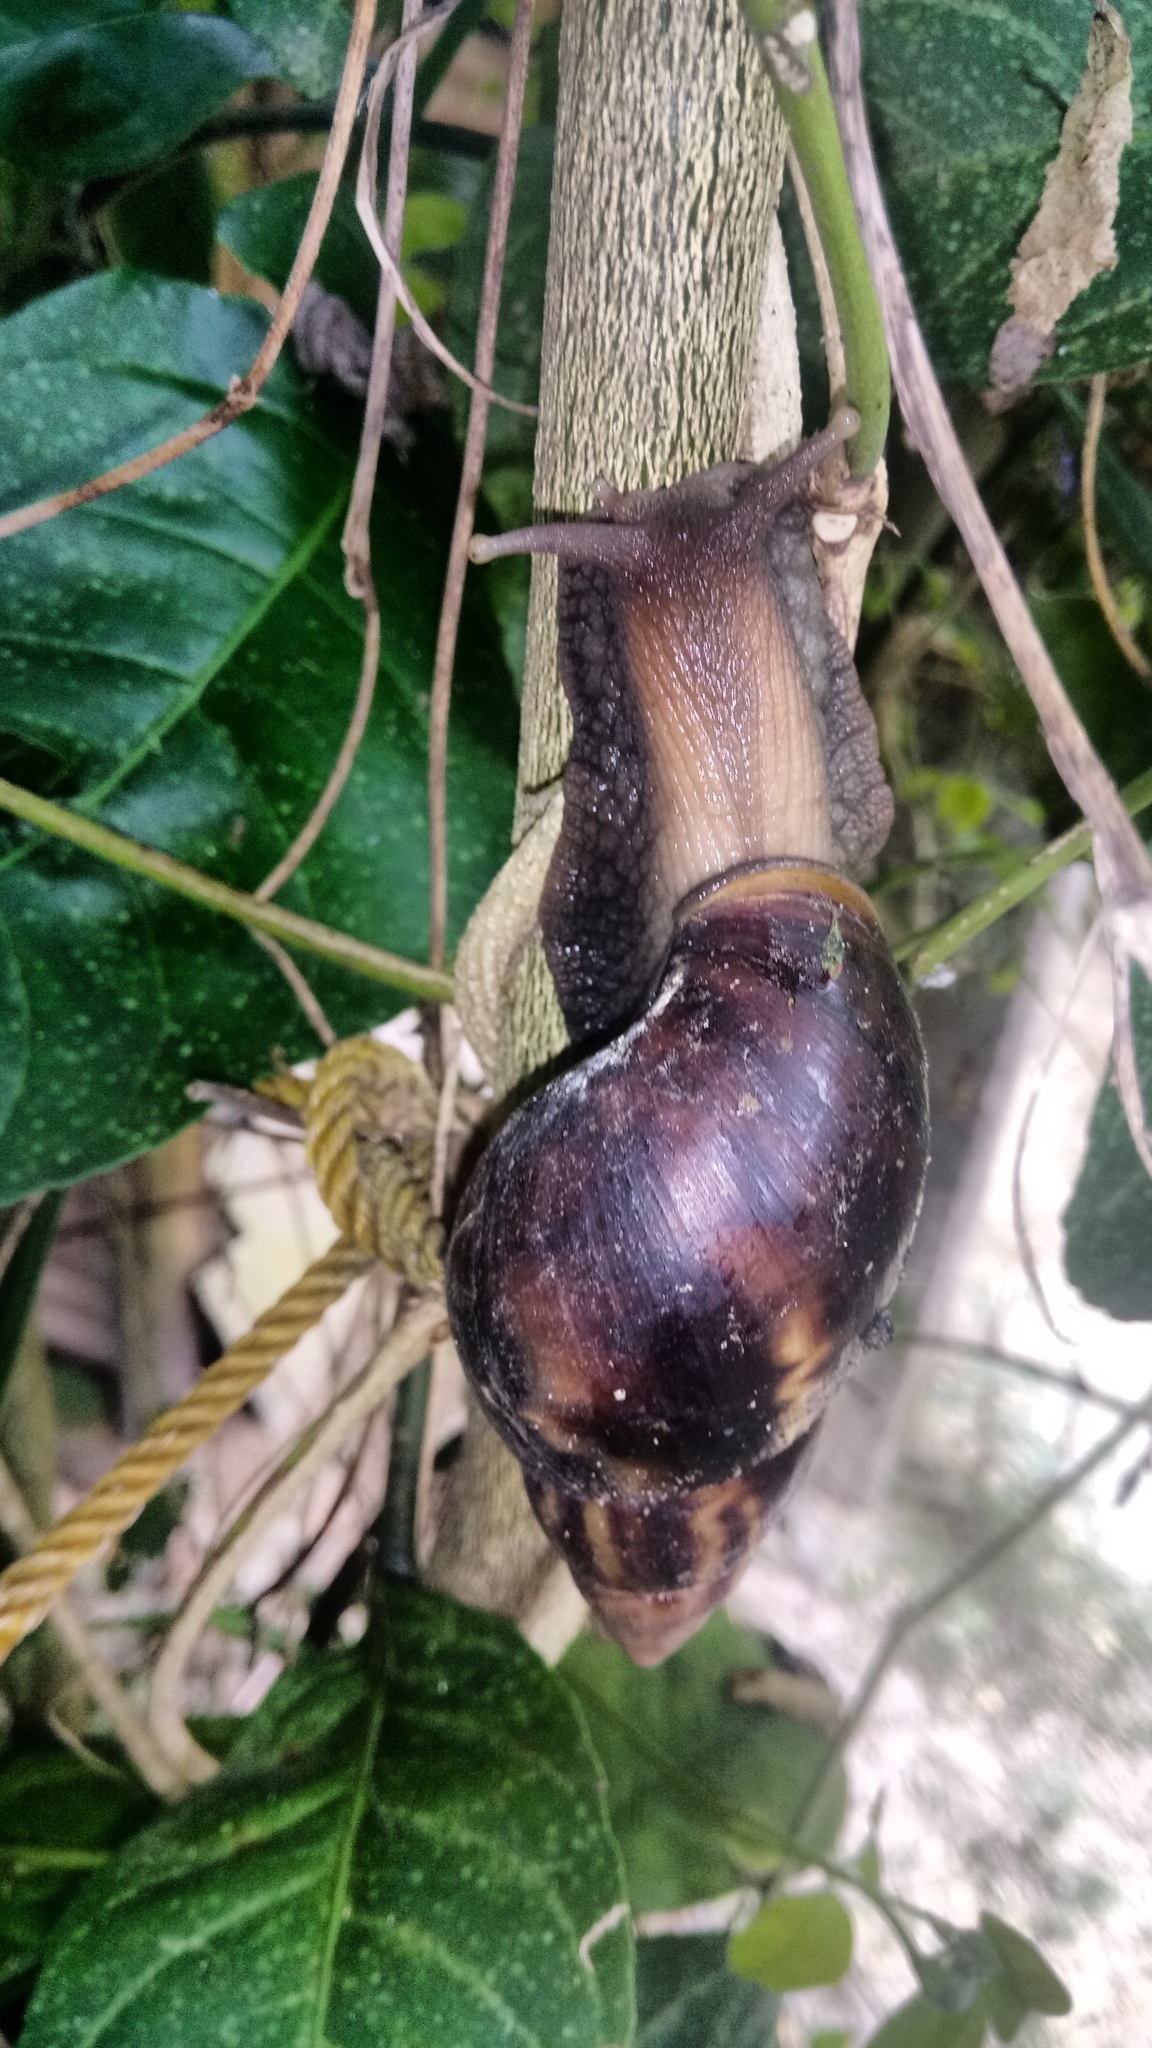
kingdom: Animalia
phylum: Mollusca
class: Gastropoda
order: Stylommatophora
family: Achatinidae
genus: Lissachatina
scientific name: Lissachatina fulica
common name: Giant african snail
